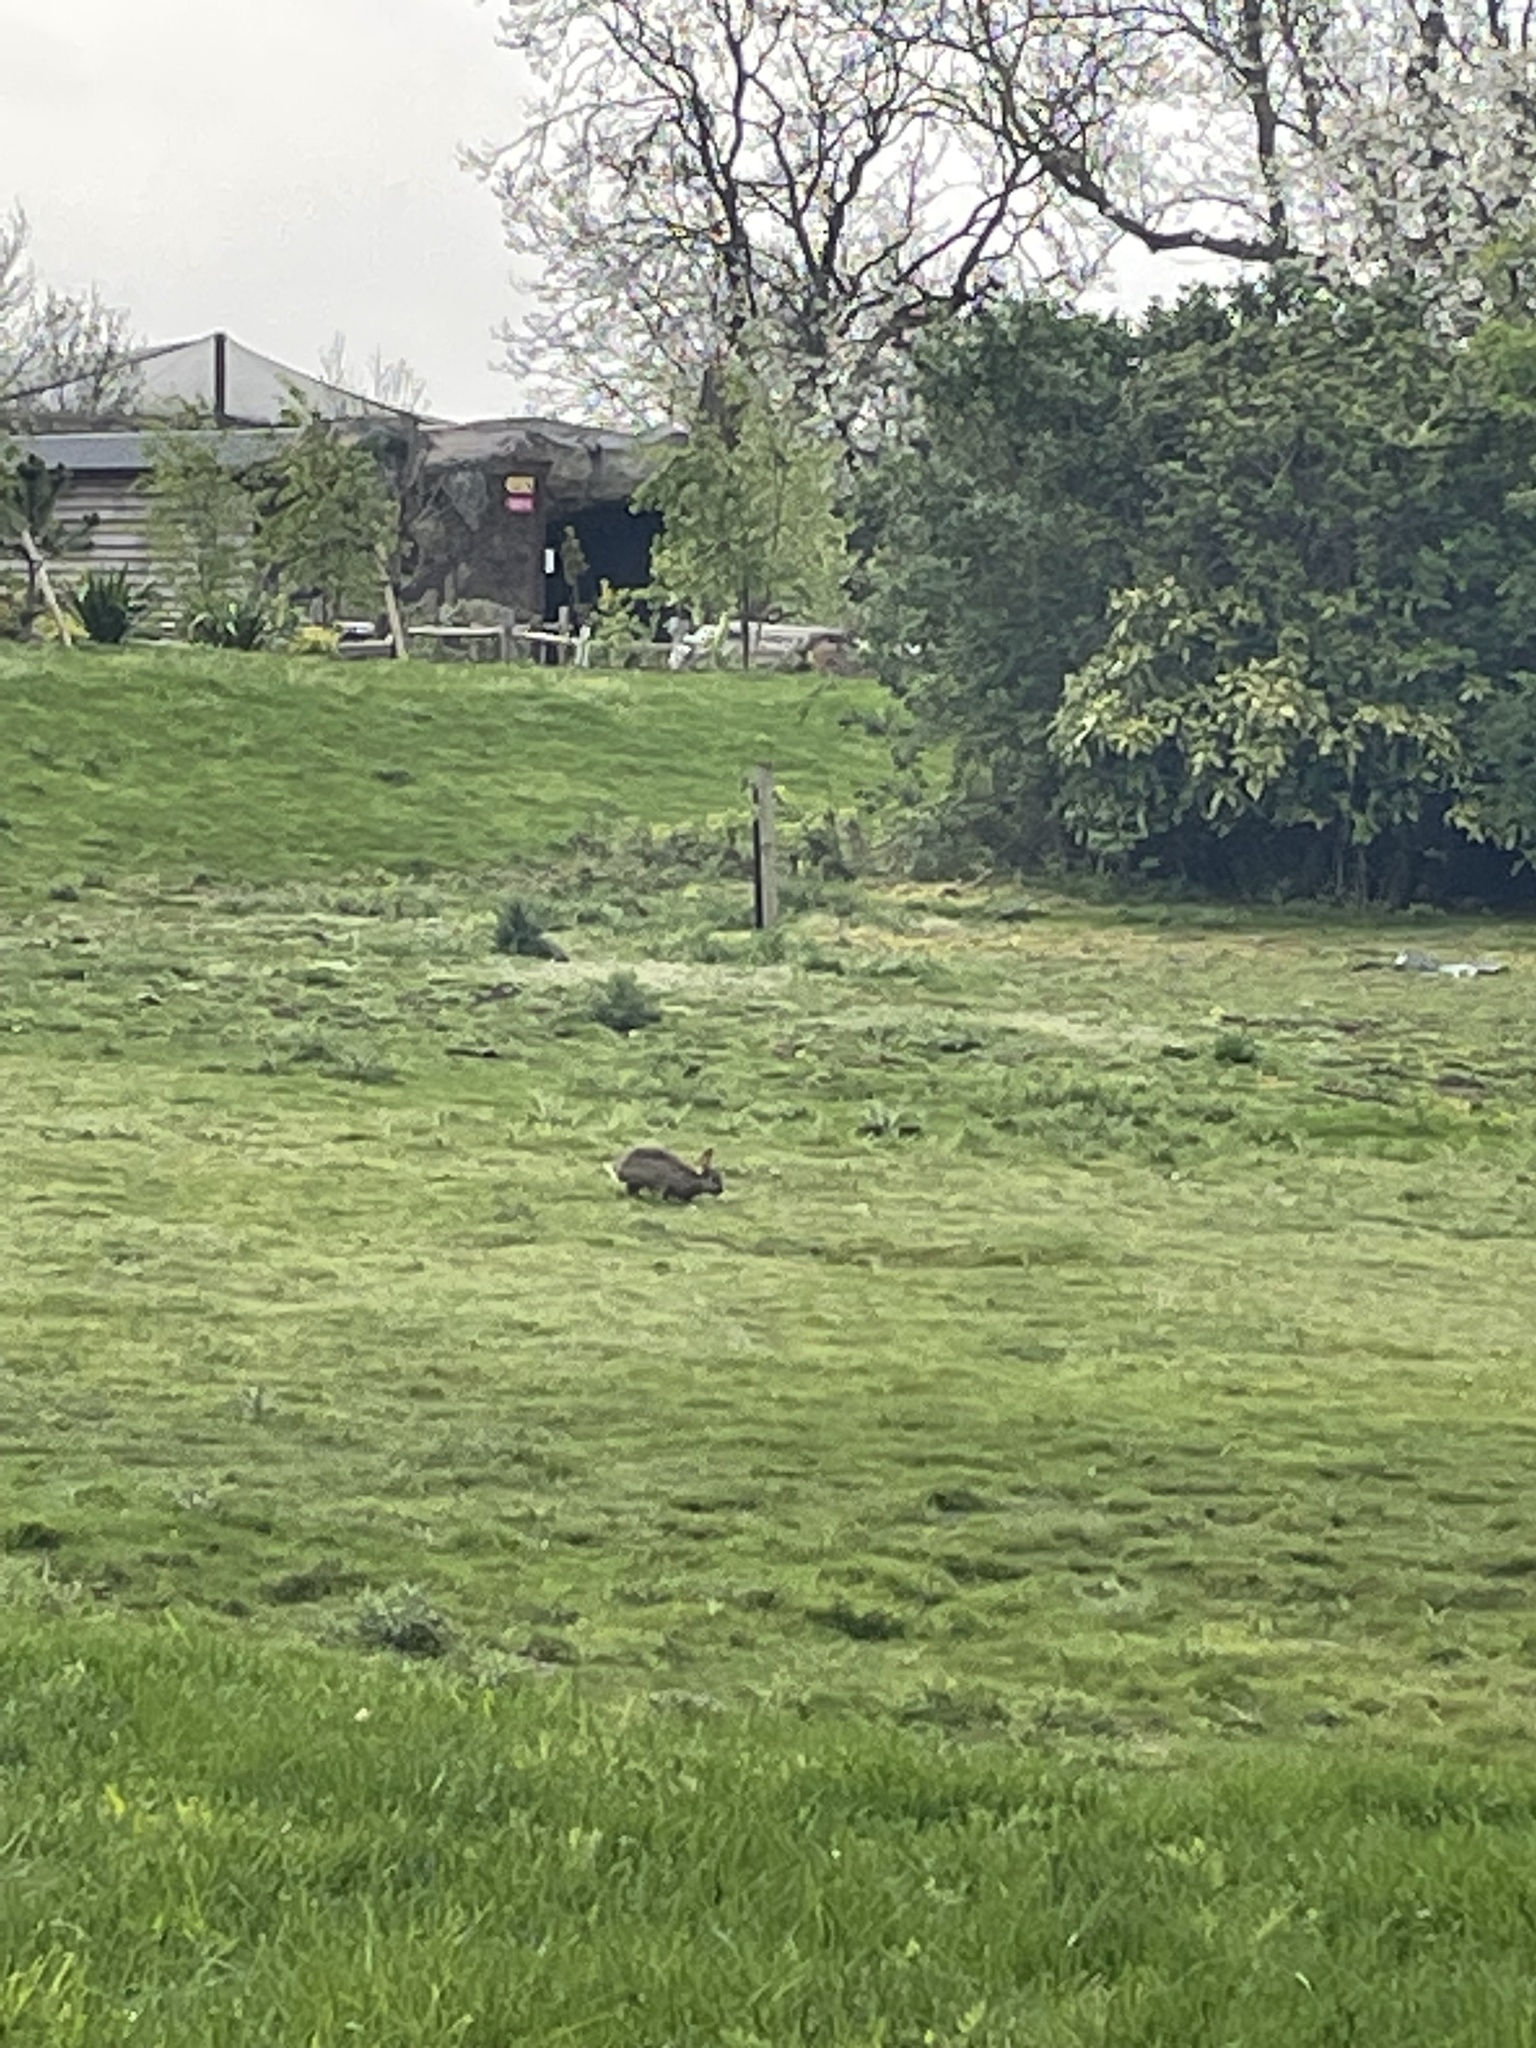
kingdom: Animalia
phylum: Chordata
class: Mammalia
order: Lagomorpha
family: Leporidae
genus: Oryctolagus
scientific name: Oryctolagus cuniculus
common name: European rabbit
